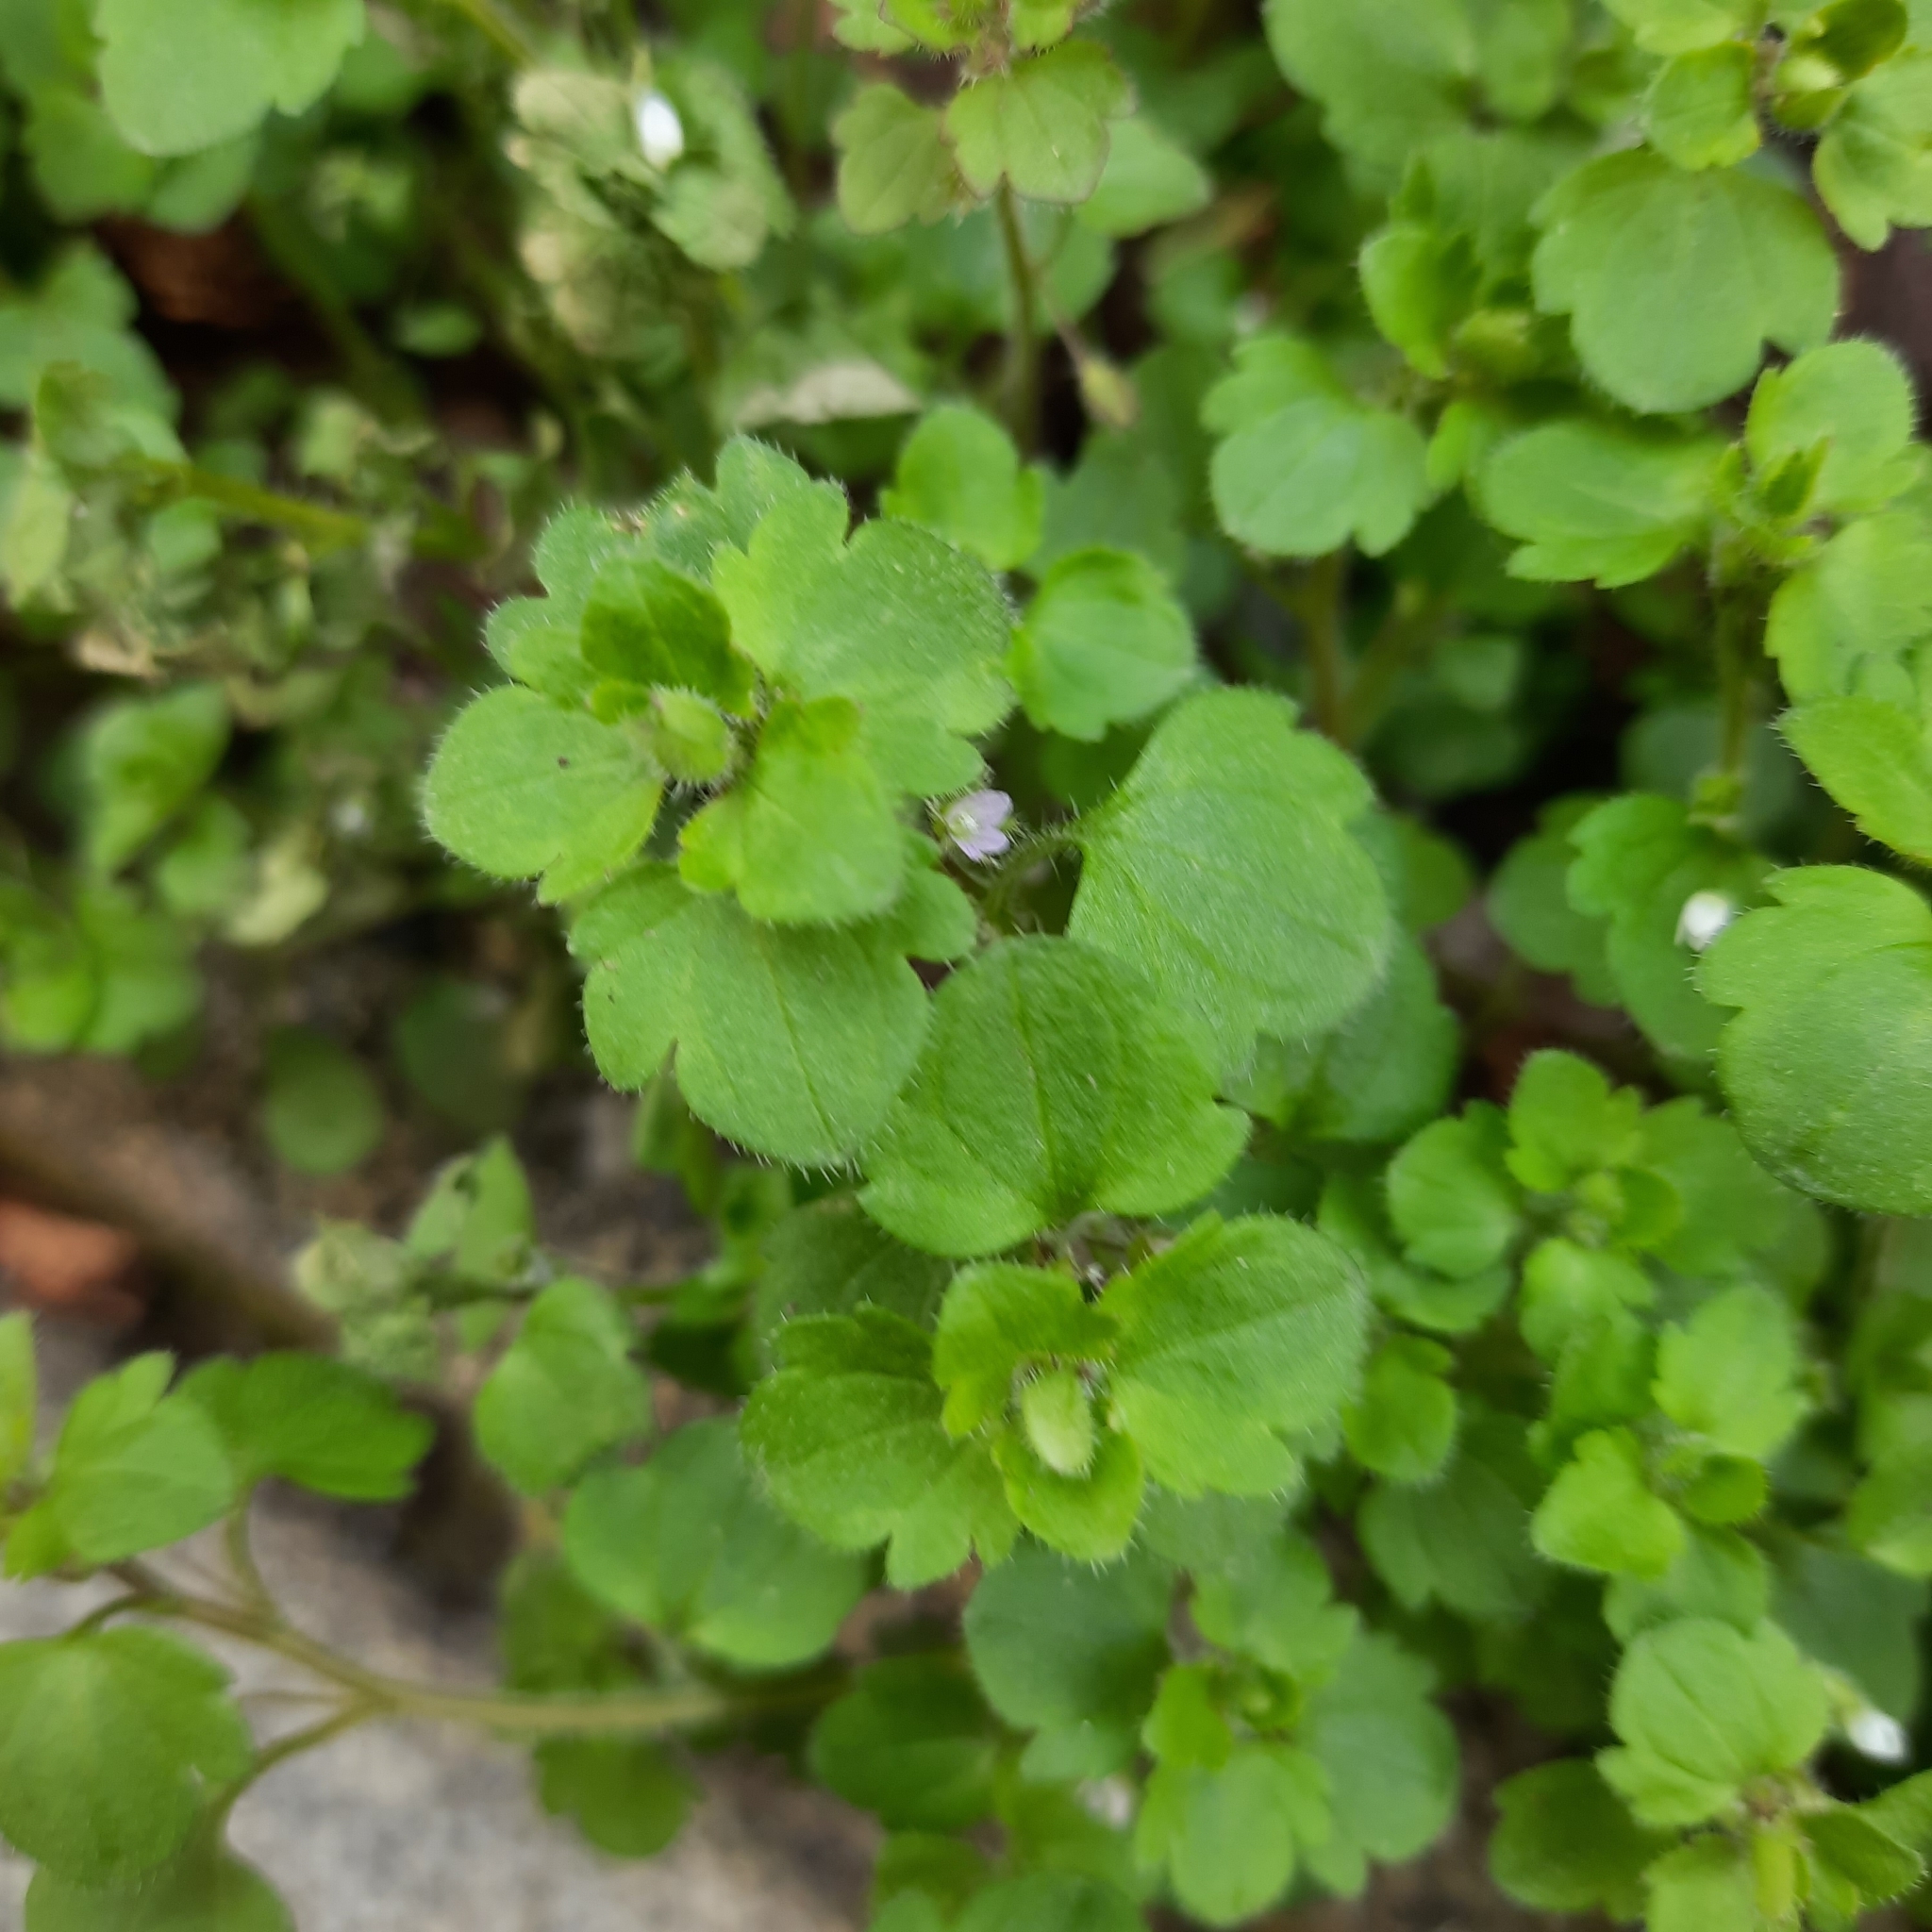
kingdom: Plantae
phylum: Tracheophyta
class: Magnoliopsida
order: Lamiales
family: Plantaginaceae
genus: Veronica
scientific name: Veronica sublobata
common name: False ivy-leaved speedwell
